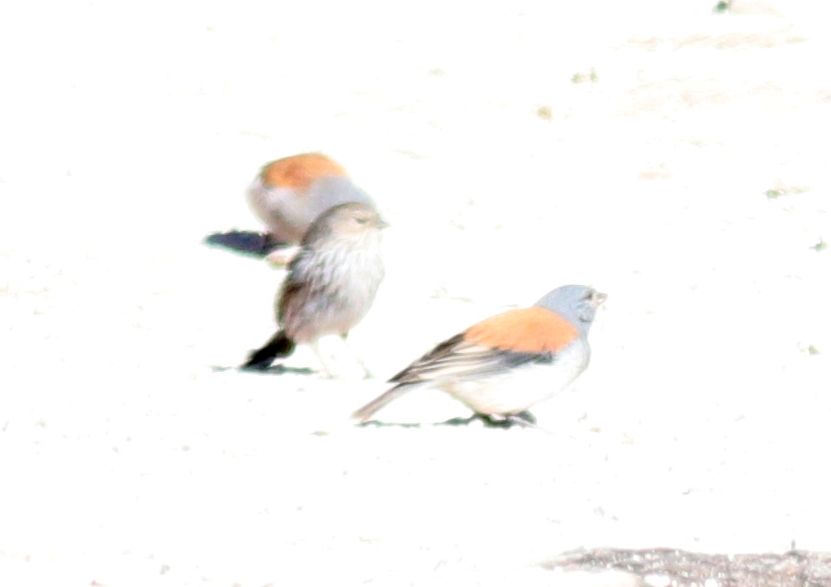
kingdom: Animalia
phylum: Chordata
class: Aves
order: Passeriformes
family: Thraupidae
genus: Idiopsar
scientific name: Idiopsar dorsalis
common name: Red-backed sierra finch
